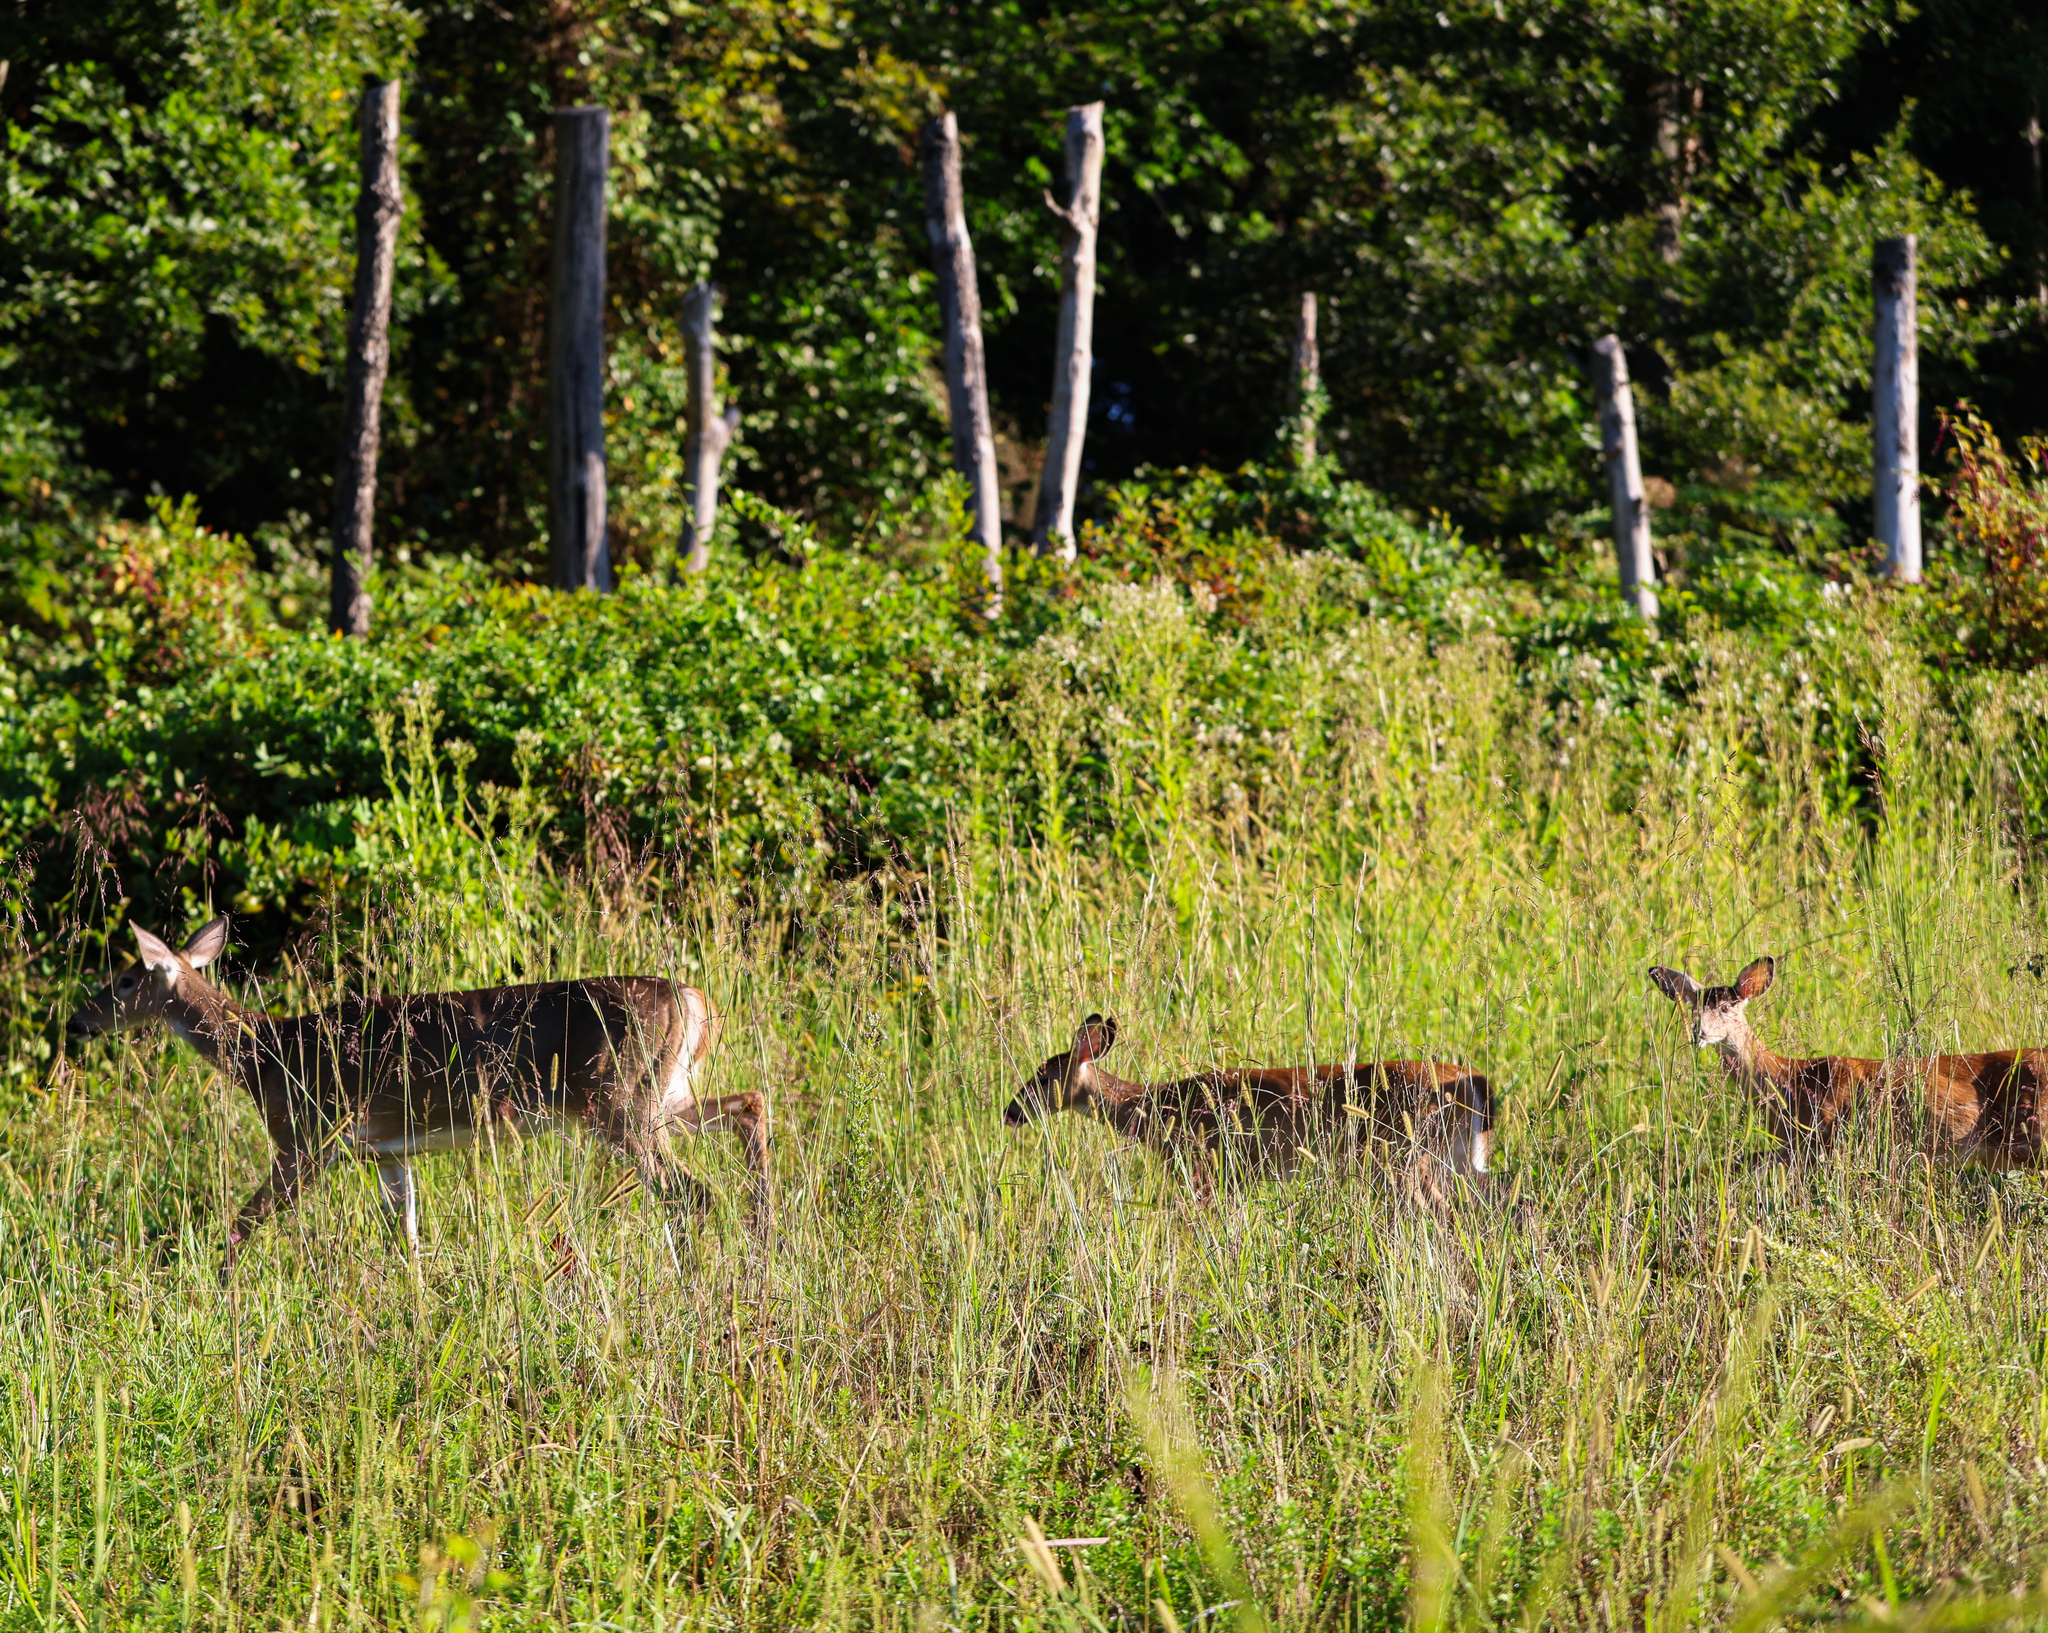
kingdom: Animalia
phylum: Chordata
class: Mammalia
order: Artiodactyla
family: Cervidae
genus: Odocoileus
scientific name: Odocoileus virginianus
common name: White-tailed deer
